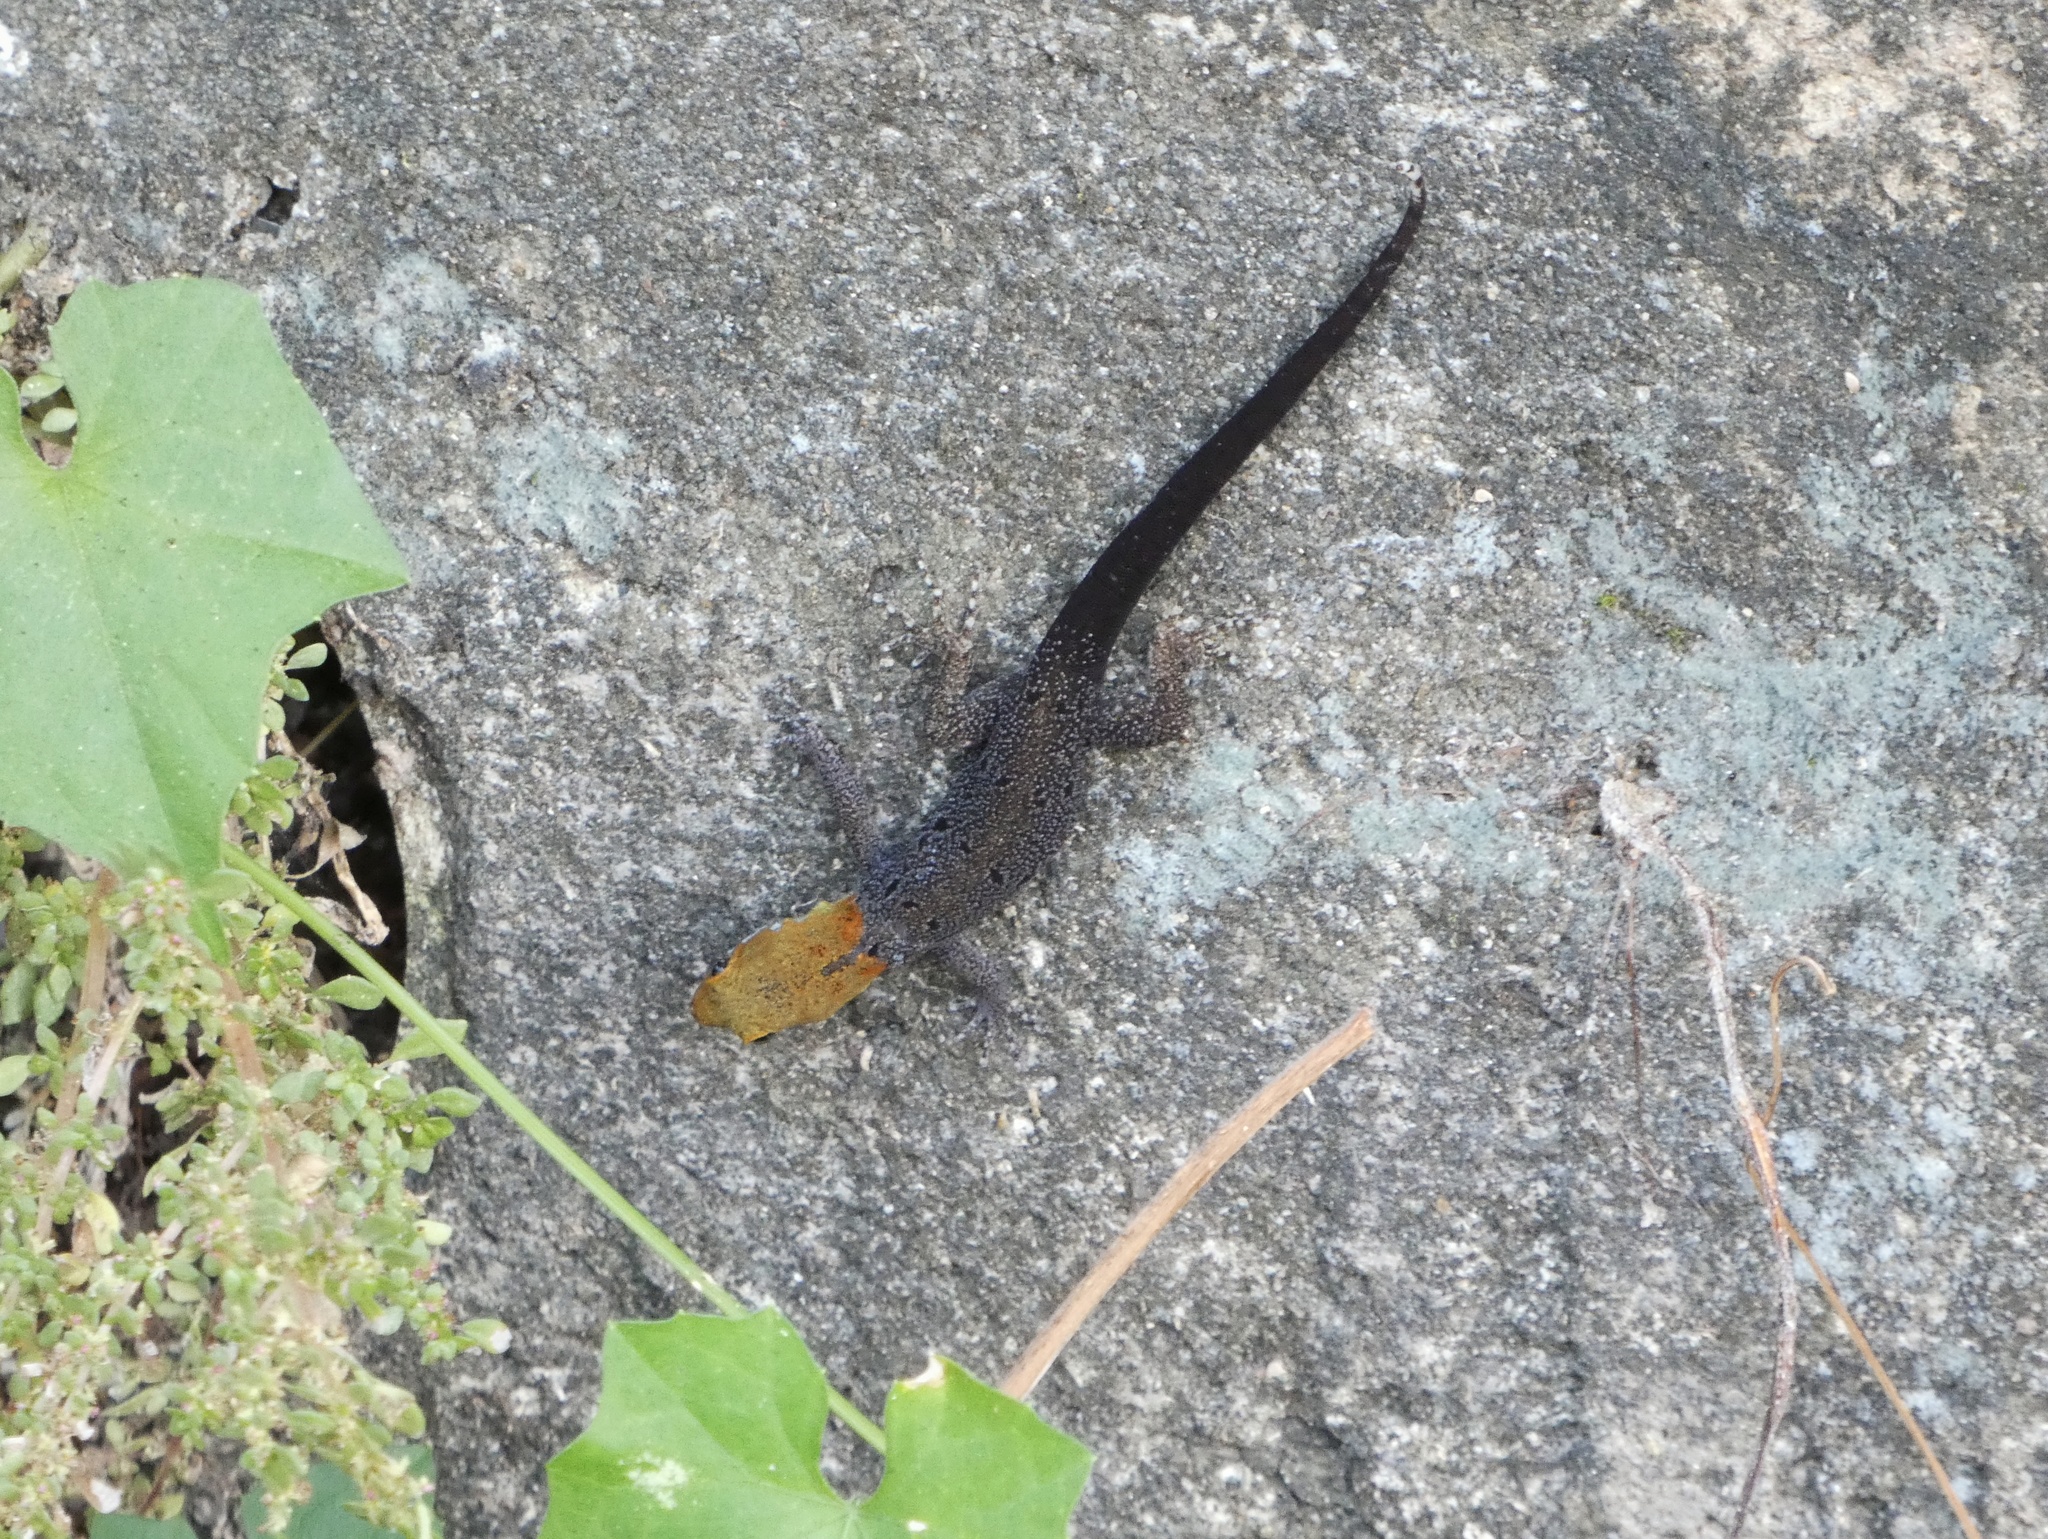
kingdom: Animalia
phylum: Chordata
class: Squamata
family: Sphaerodactylidae
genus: Gonatodes
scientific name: Gonatodes albogularis
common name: Yellow-headed gecko
